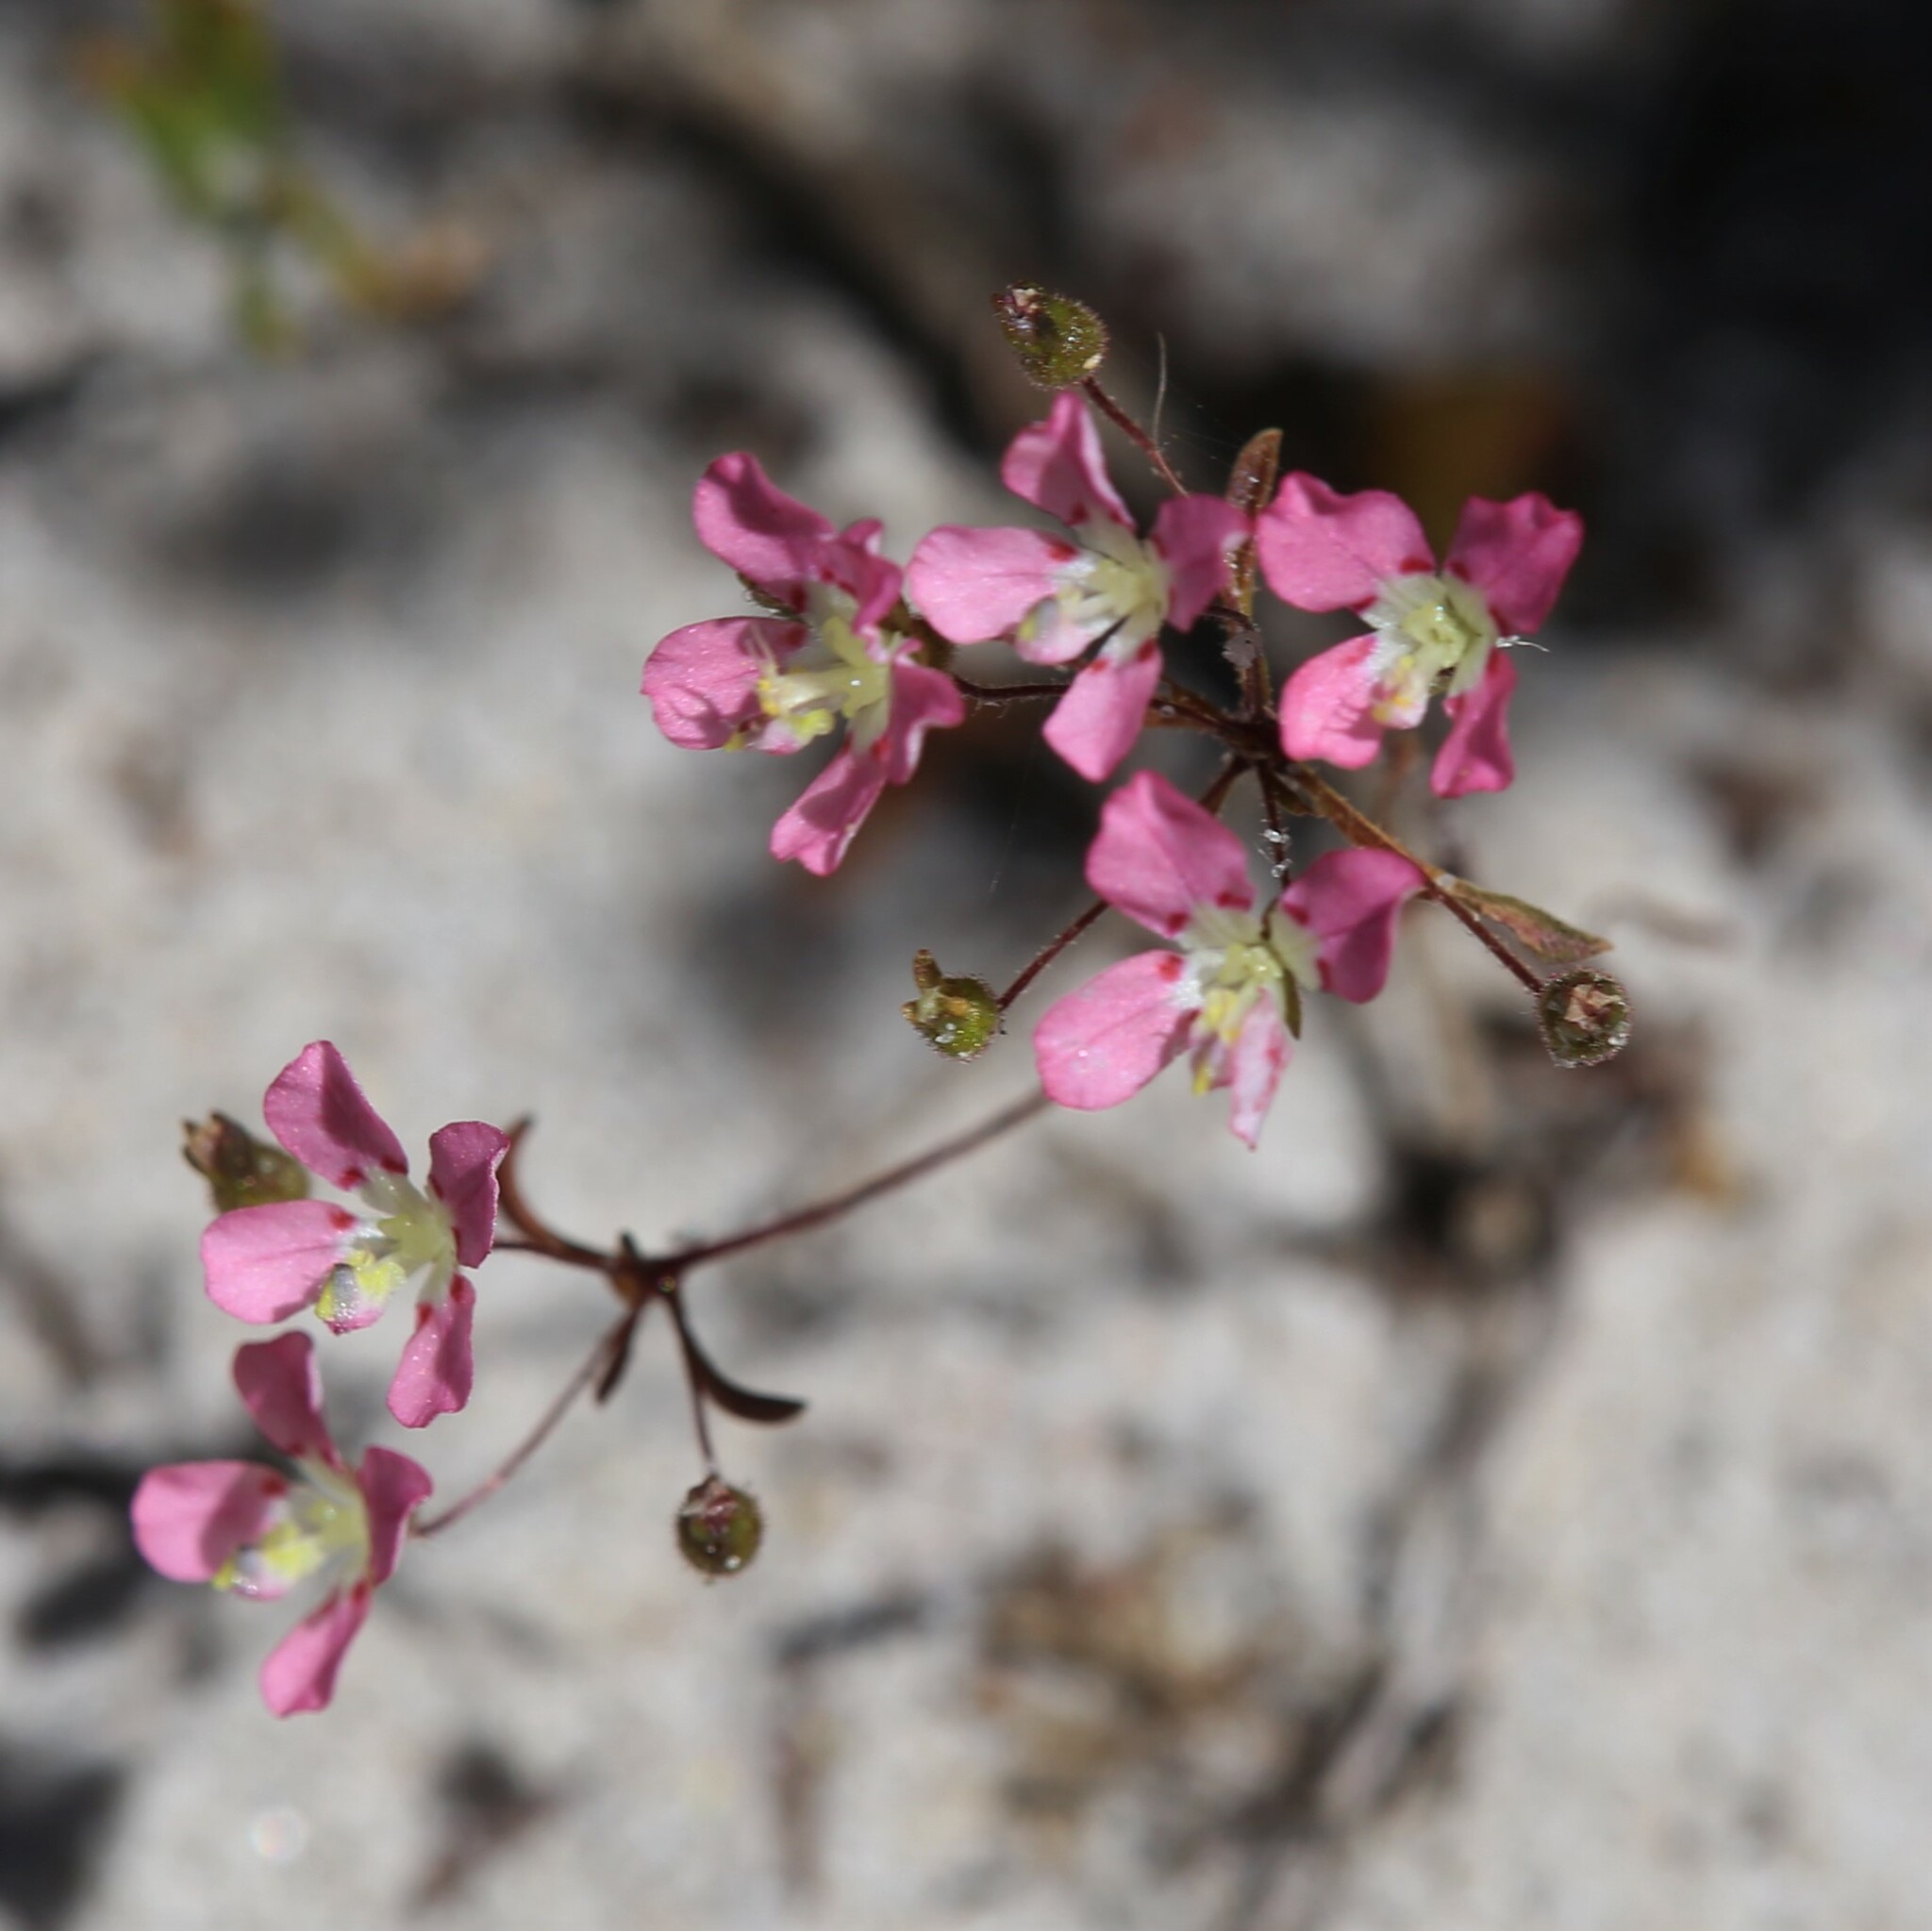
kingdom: Plantae
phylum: Tracheophyta
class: Magnoliopsida
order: Asterales
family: Stylidiaceae
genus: Levenhookia
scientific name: Levenhookia octomaculata
